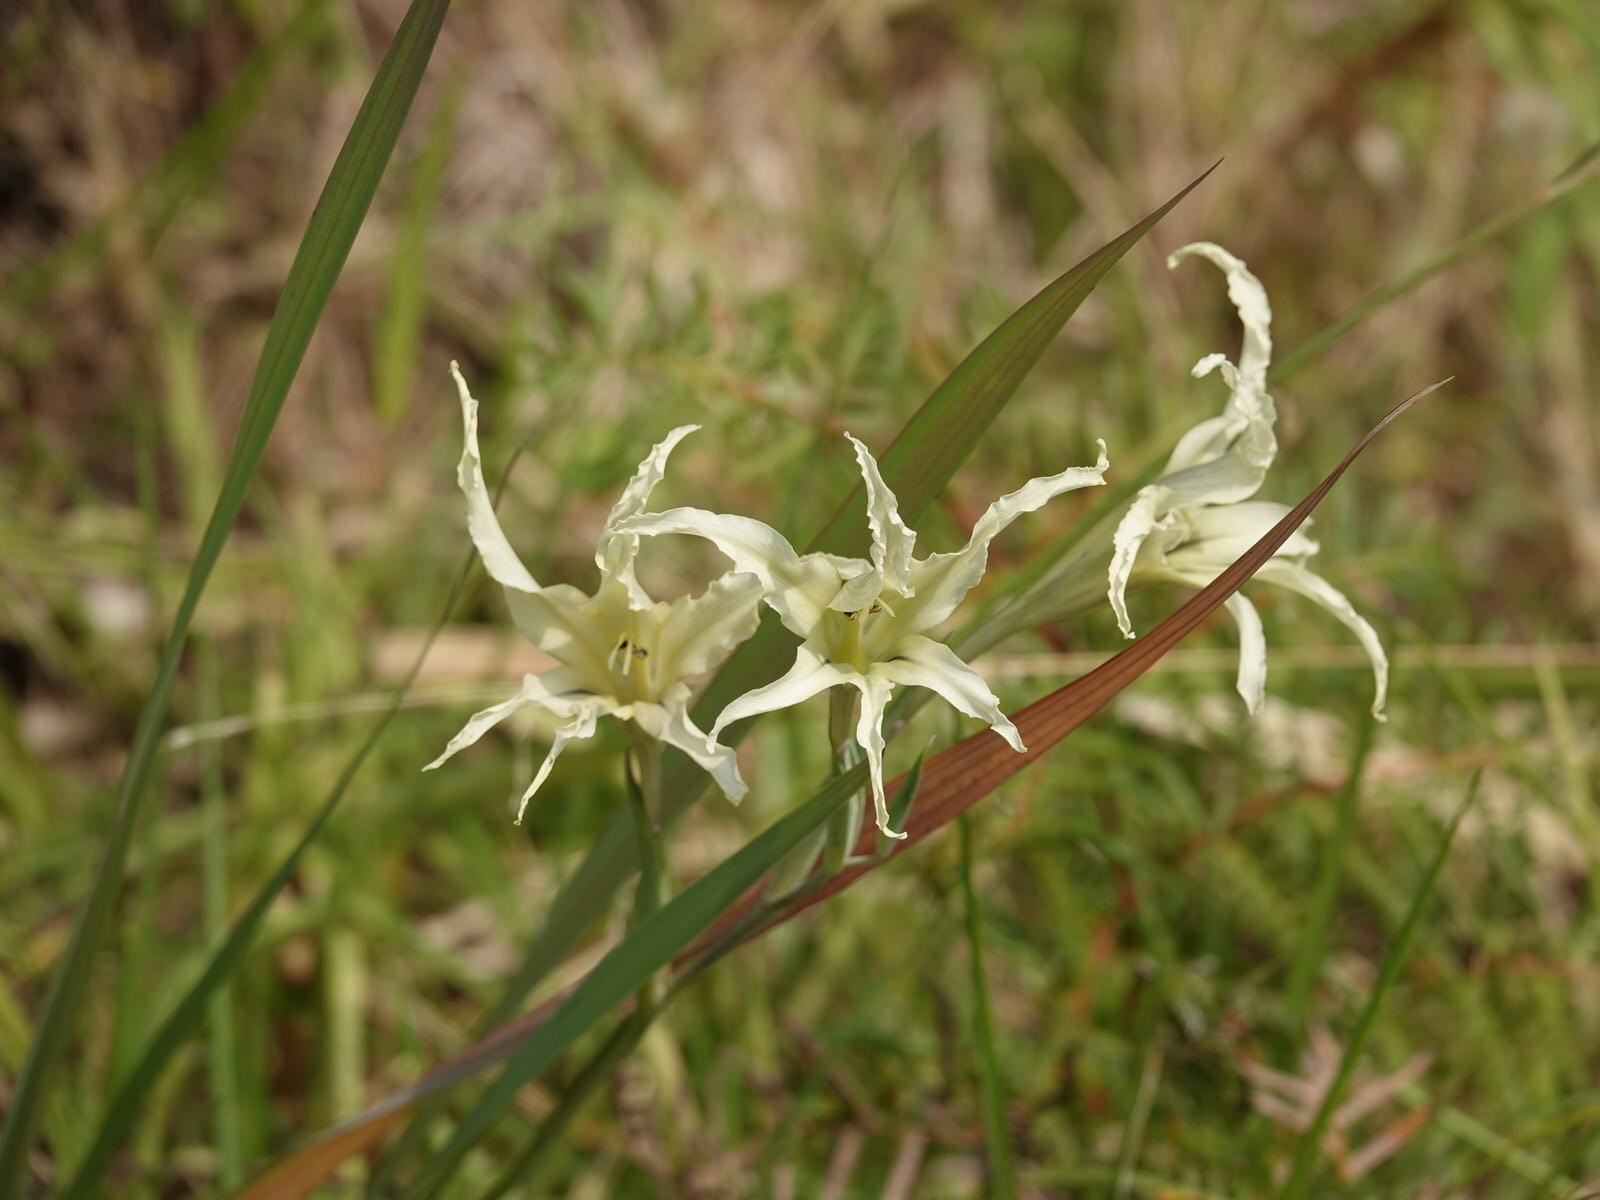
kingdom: Plantae
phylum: Tracheophyta
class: Liliopsida
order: Asparagales
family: Iridaceae
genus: Gladiolus
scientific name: Gladiolus undulatus
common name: Large painted-lady
